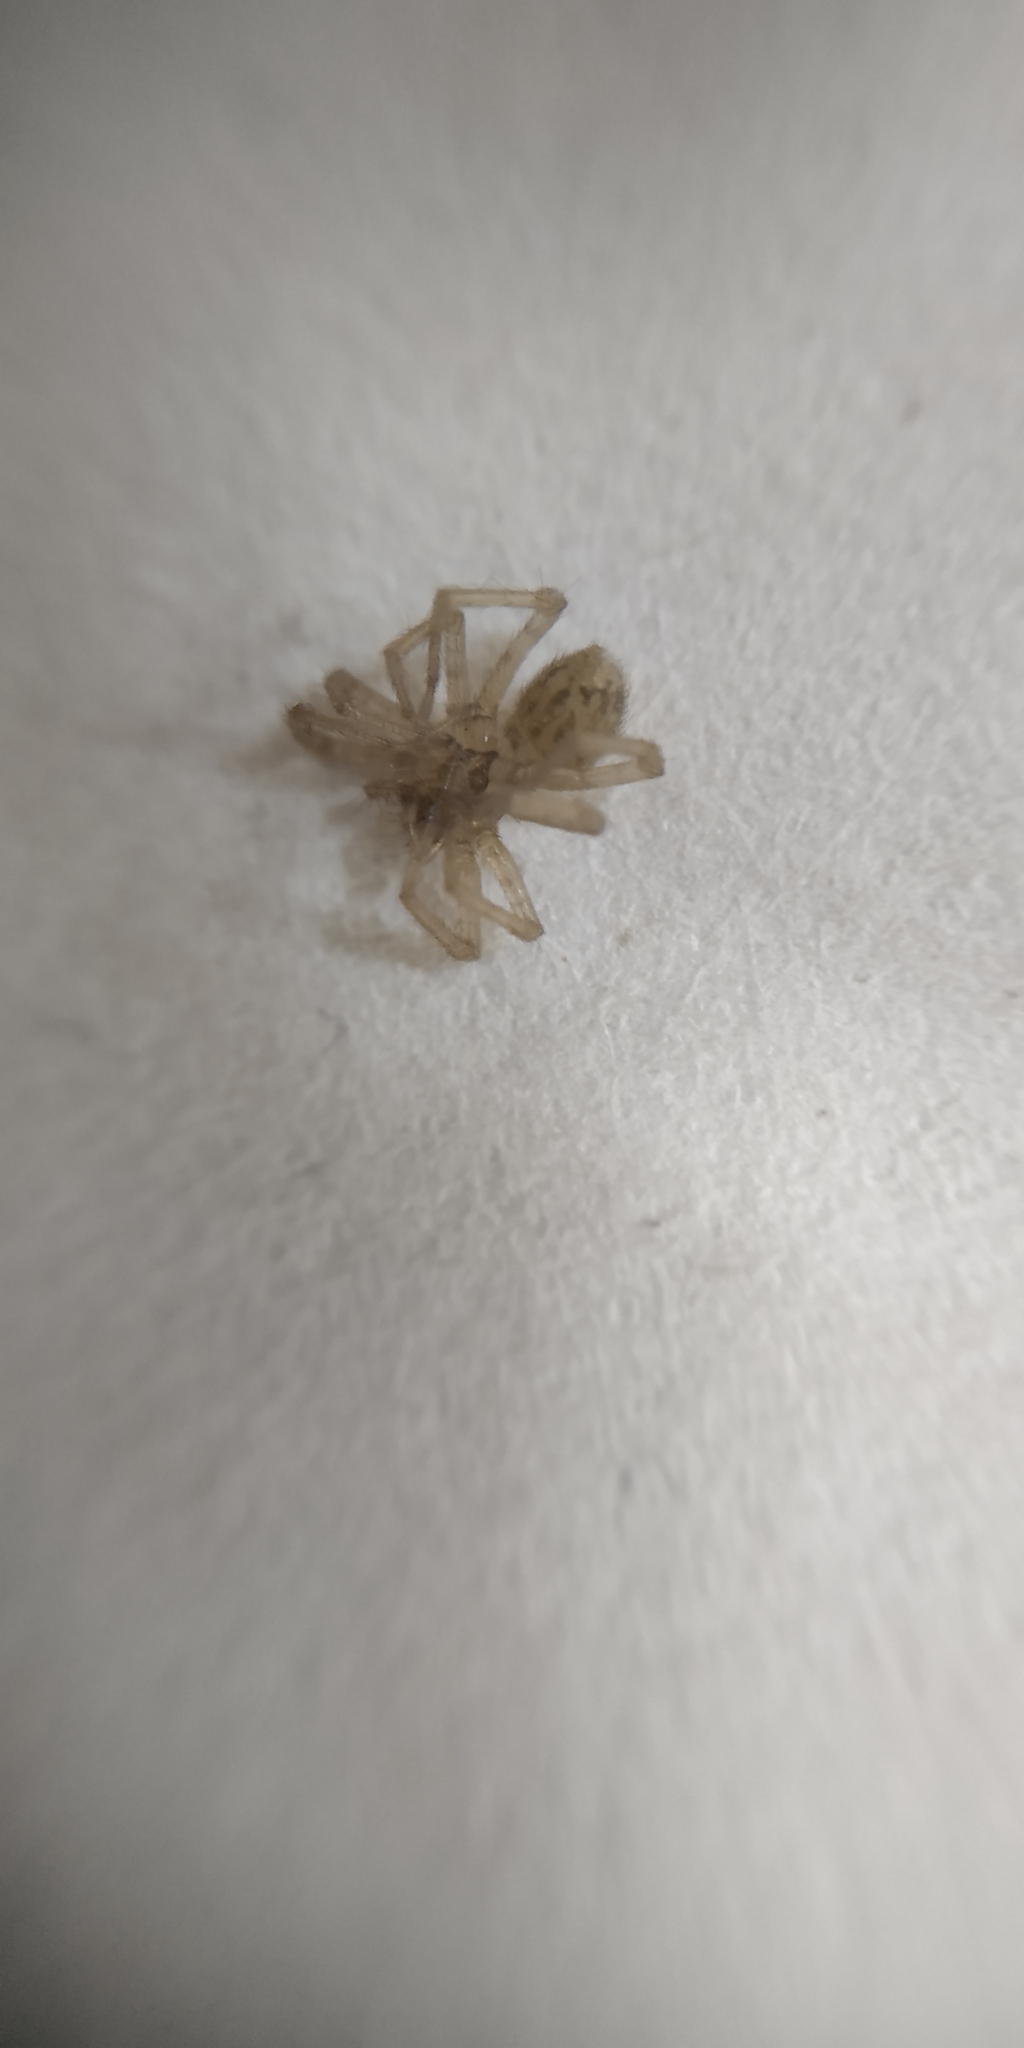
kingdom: Animalia
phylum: Arthropoda
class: Arachnida
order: Araneae
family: Agelenidae
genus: Tegenaria
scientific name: Tegenaria domestica
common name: Barn funnel weaver
